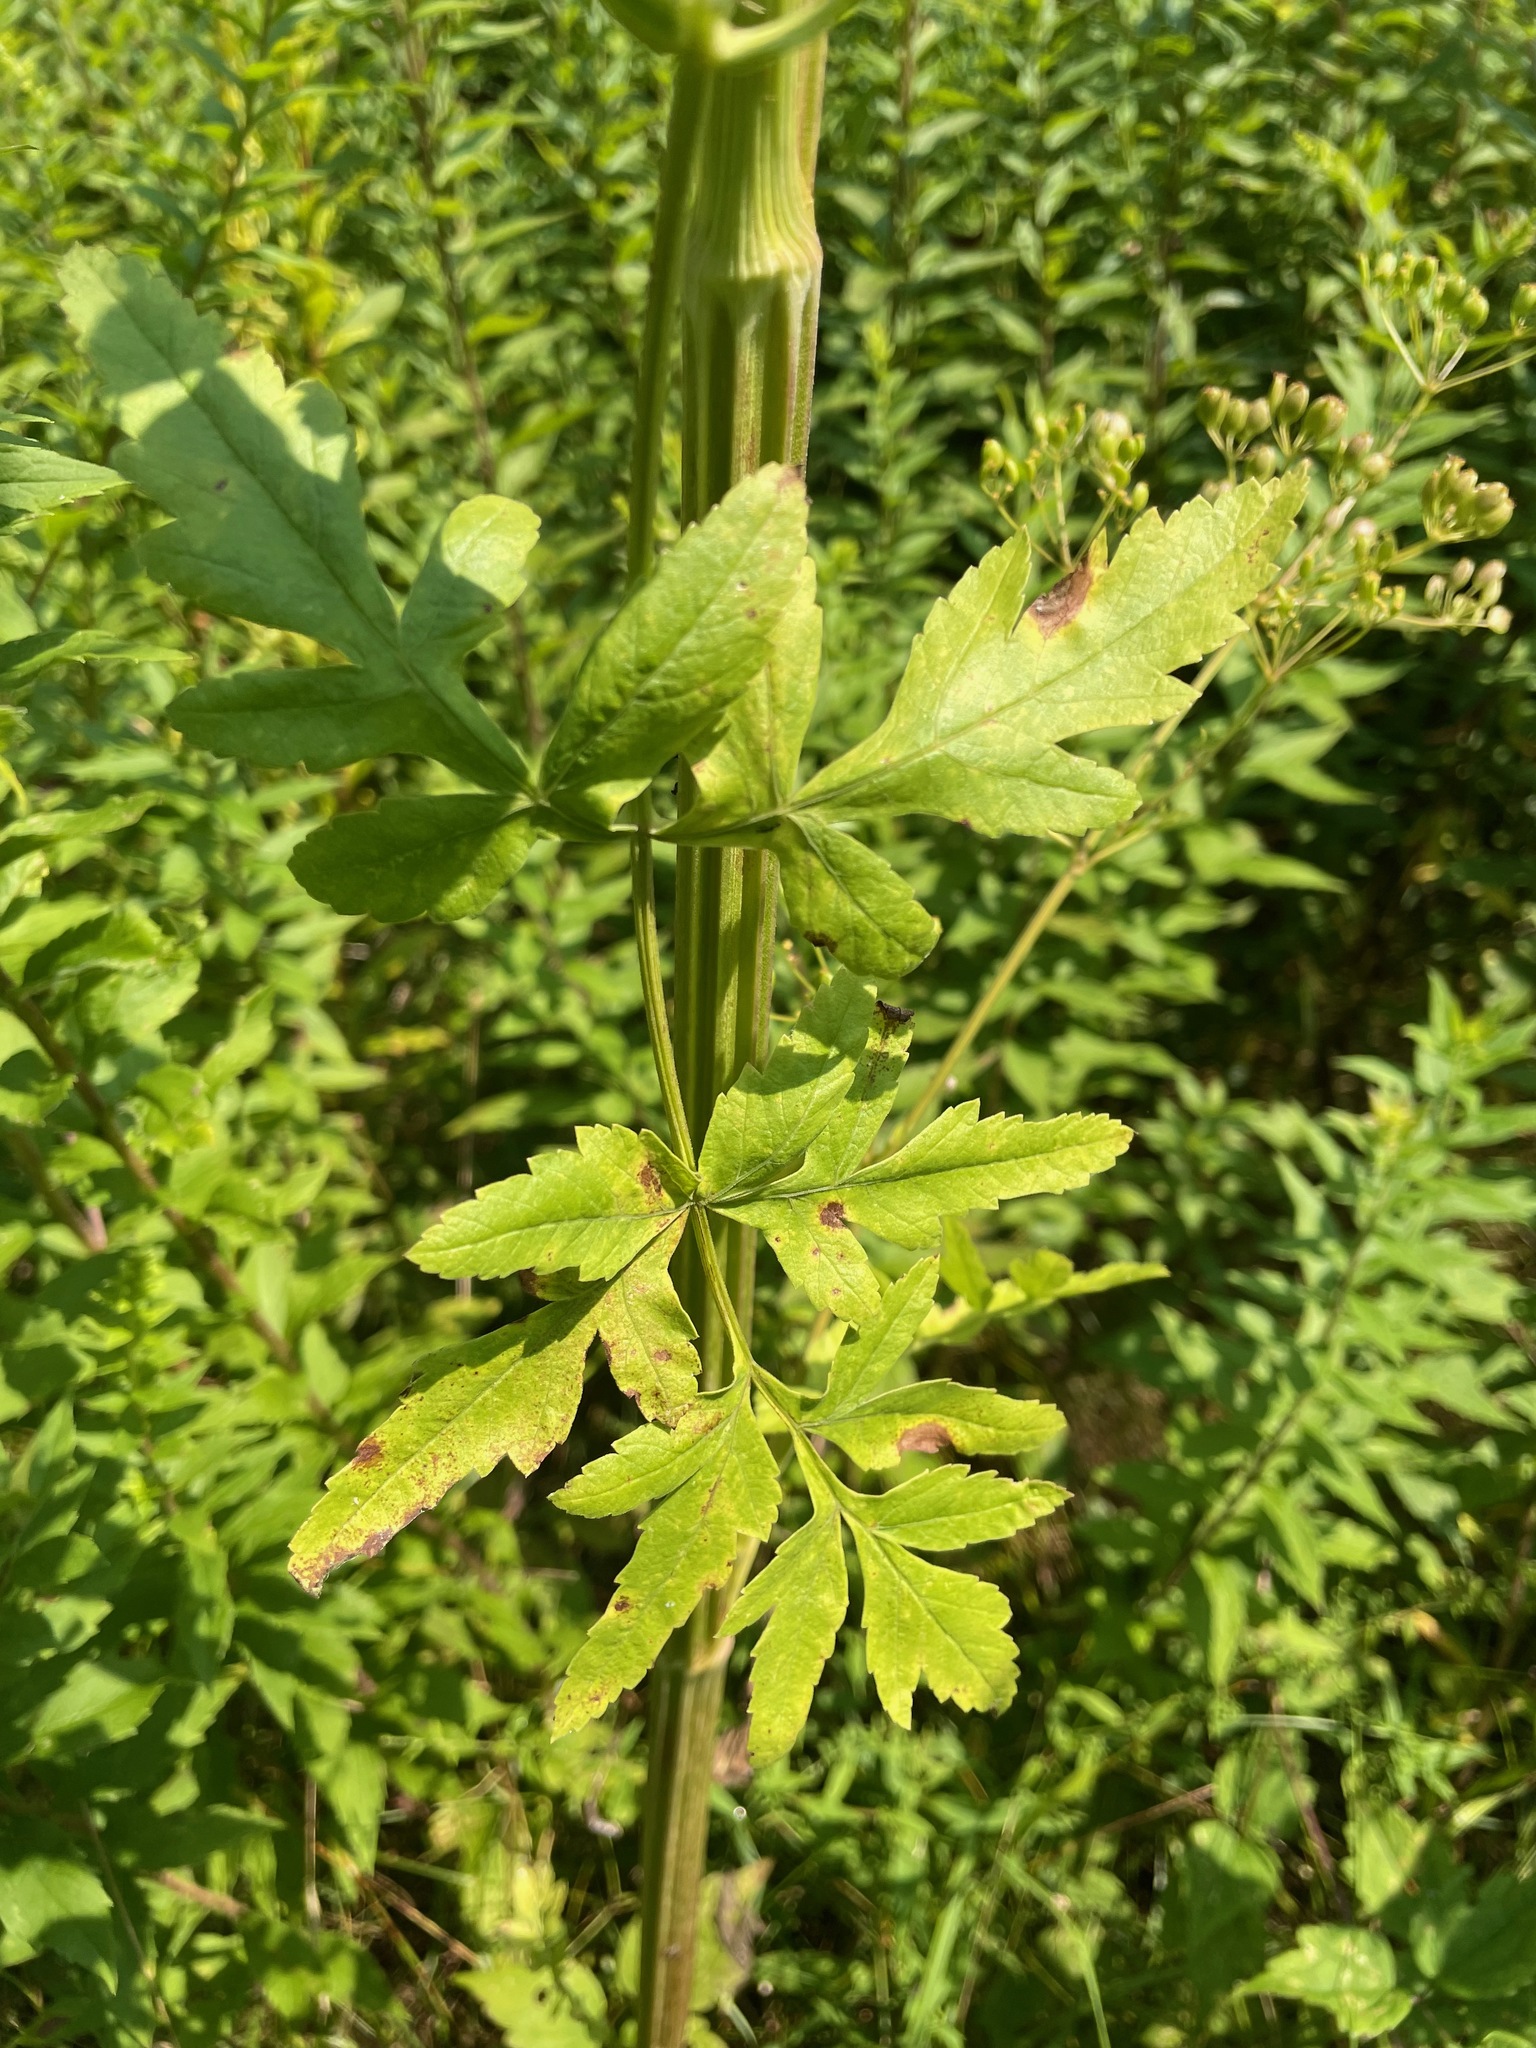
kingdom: Plantae
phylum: Tracheophyta
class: Magnoliopsida
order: Apiales
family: Apiaceae
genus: Pastinaca
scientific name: Pastinaca sativa
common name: Wild parsnip
